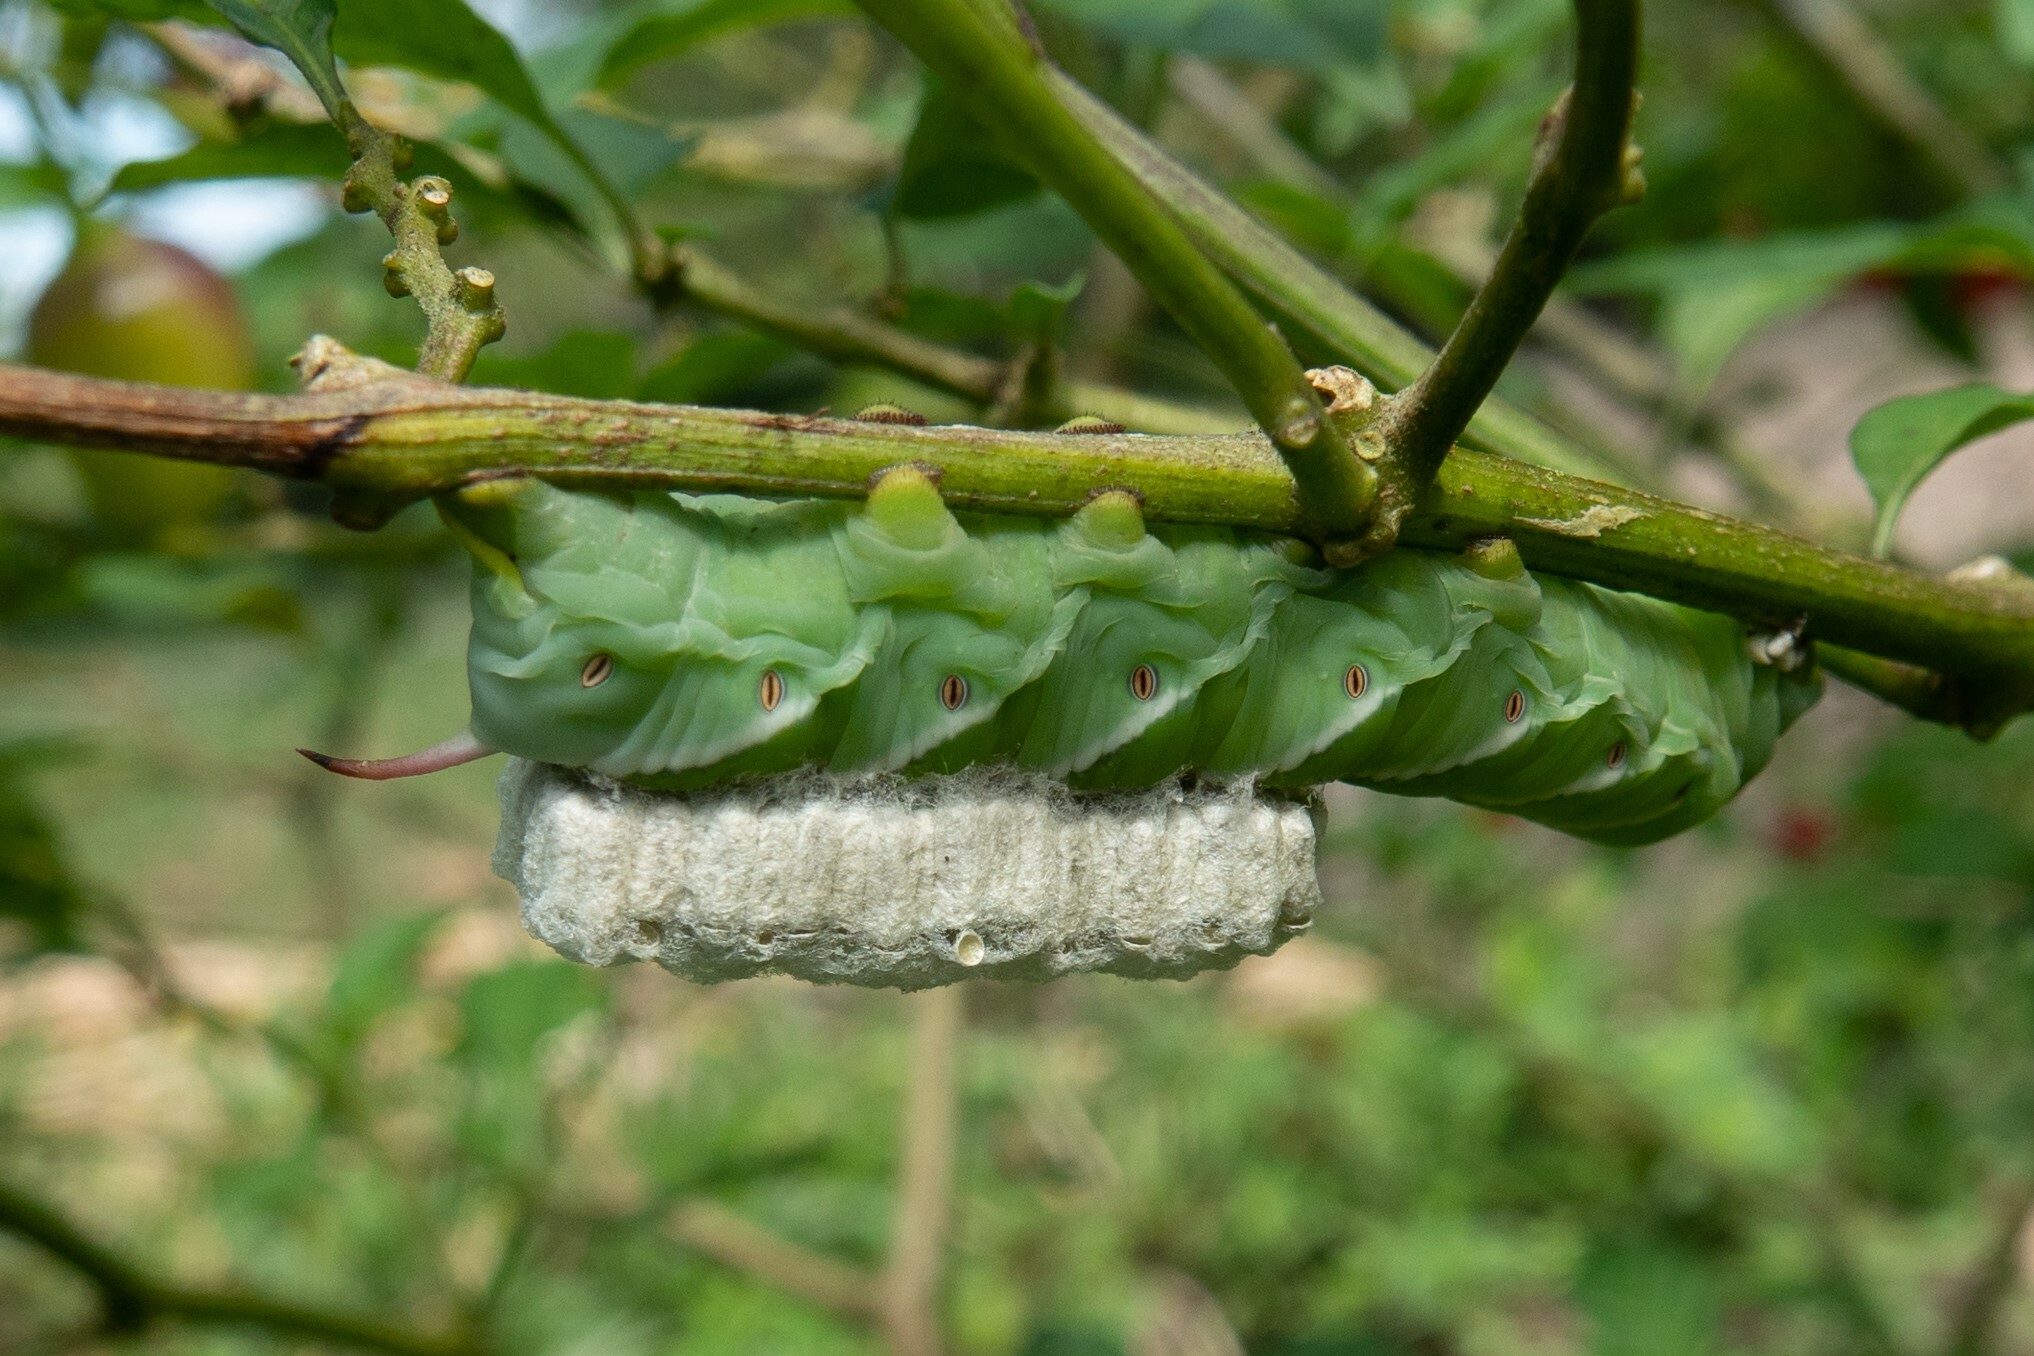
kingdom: Animalia
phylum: Arthropoda
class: Insecta
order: Lepidoptera
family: Sphingidae
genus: Manduca
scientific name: Manduca afflicta
